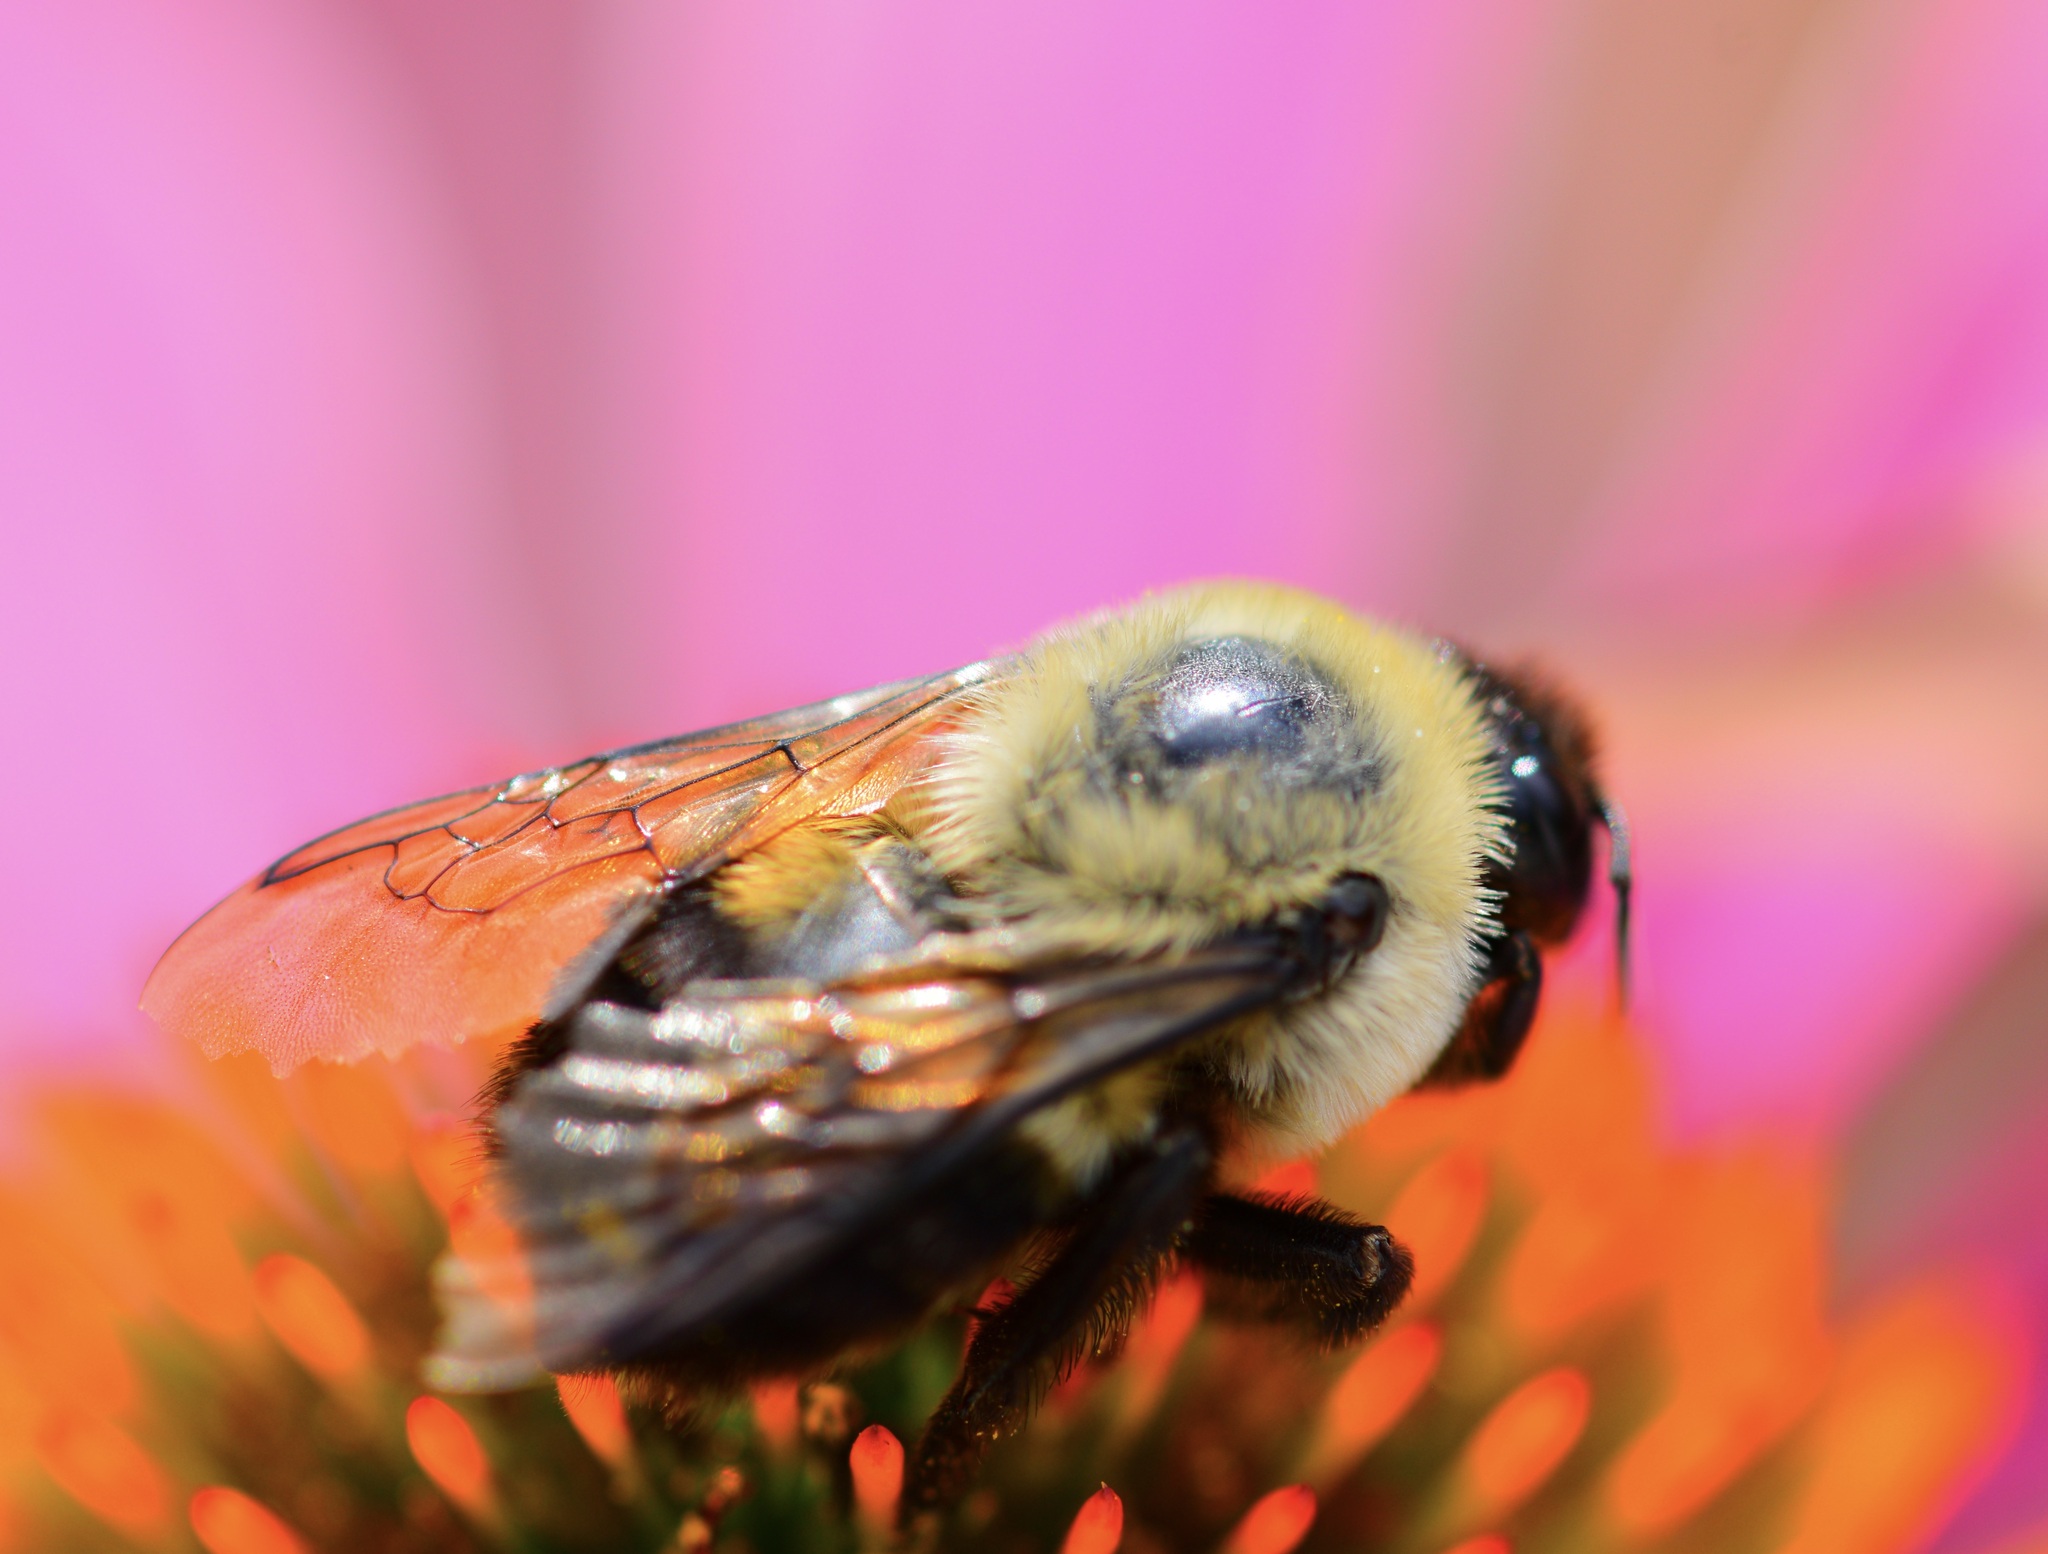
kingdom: Animalia
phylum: Arthropoda
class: Insecta
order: Hymenoptera
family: Apidae
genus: Bombus
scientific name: Bombus griseocollis
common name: Brown-belted bumble bee
